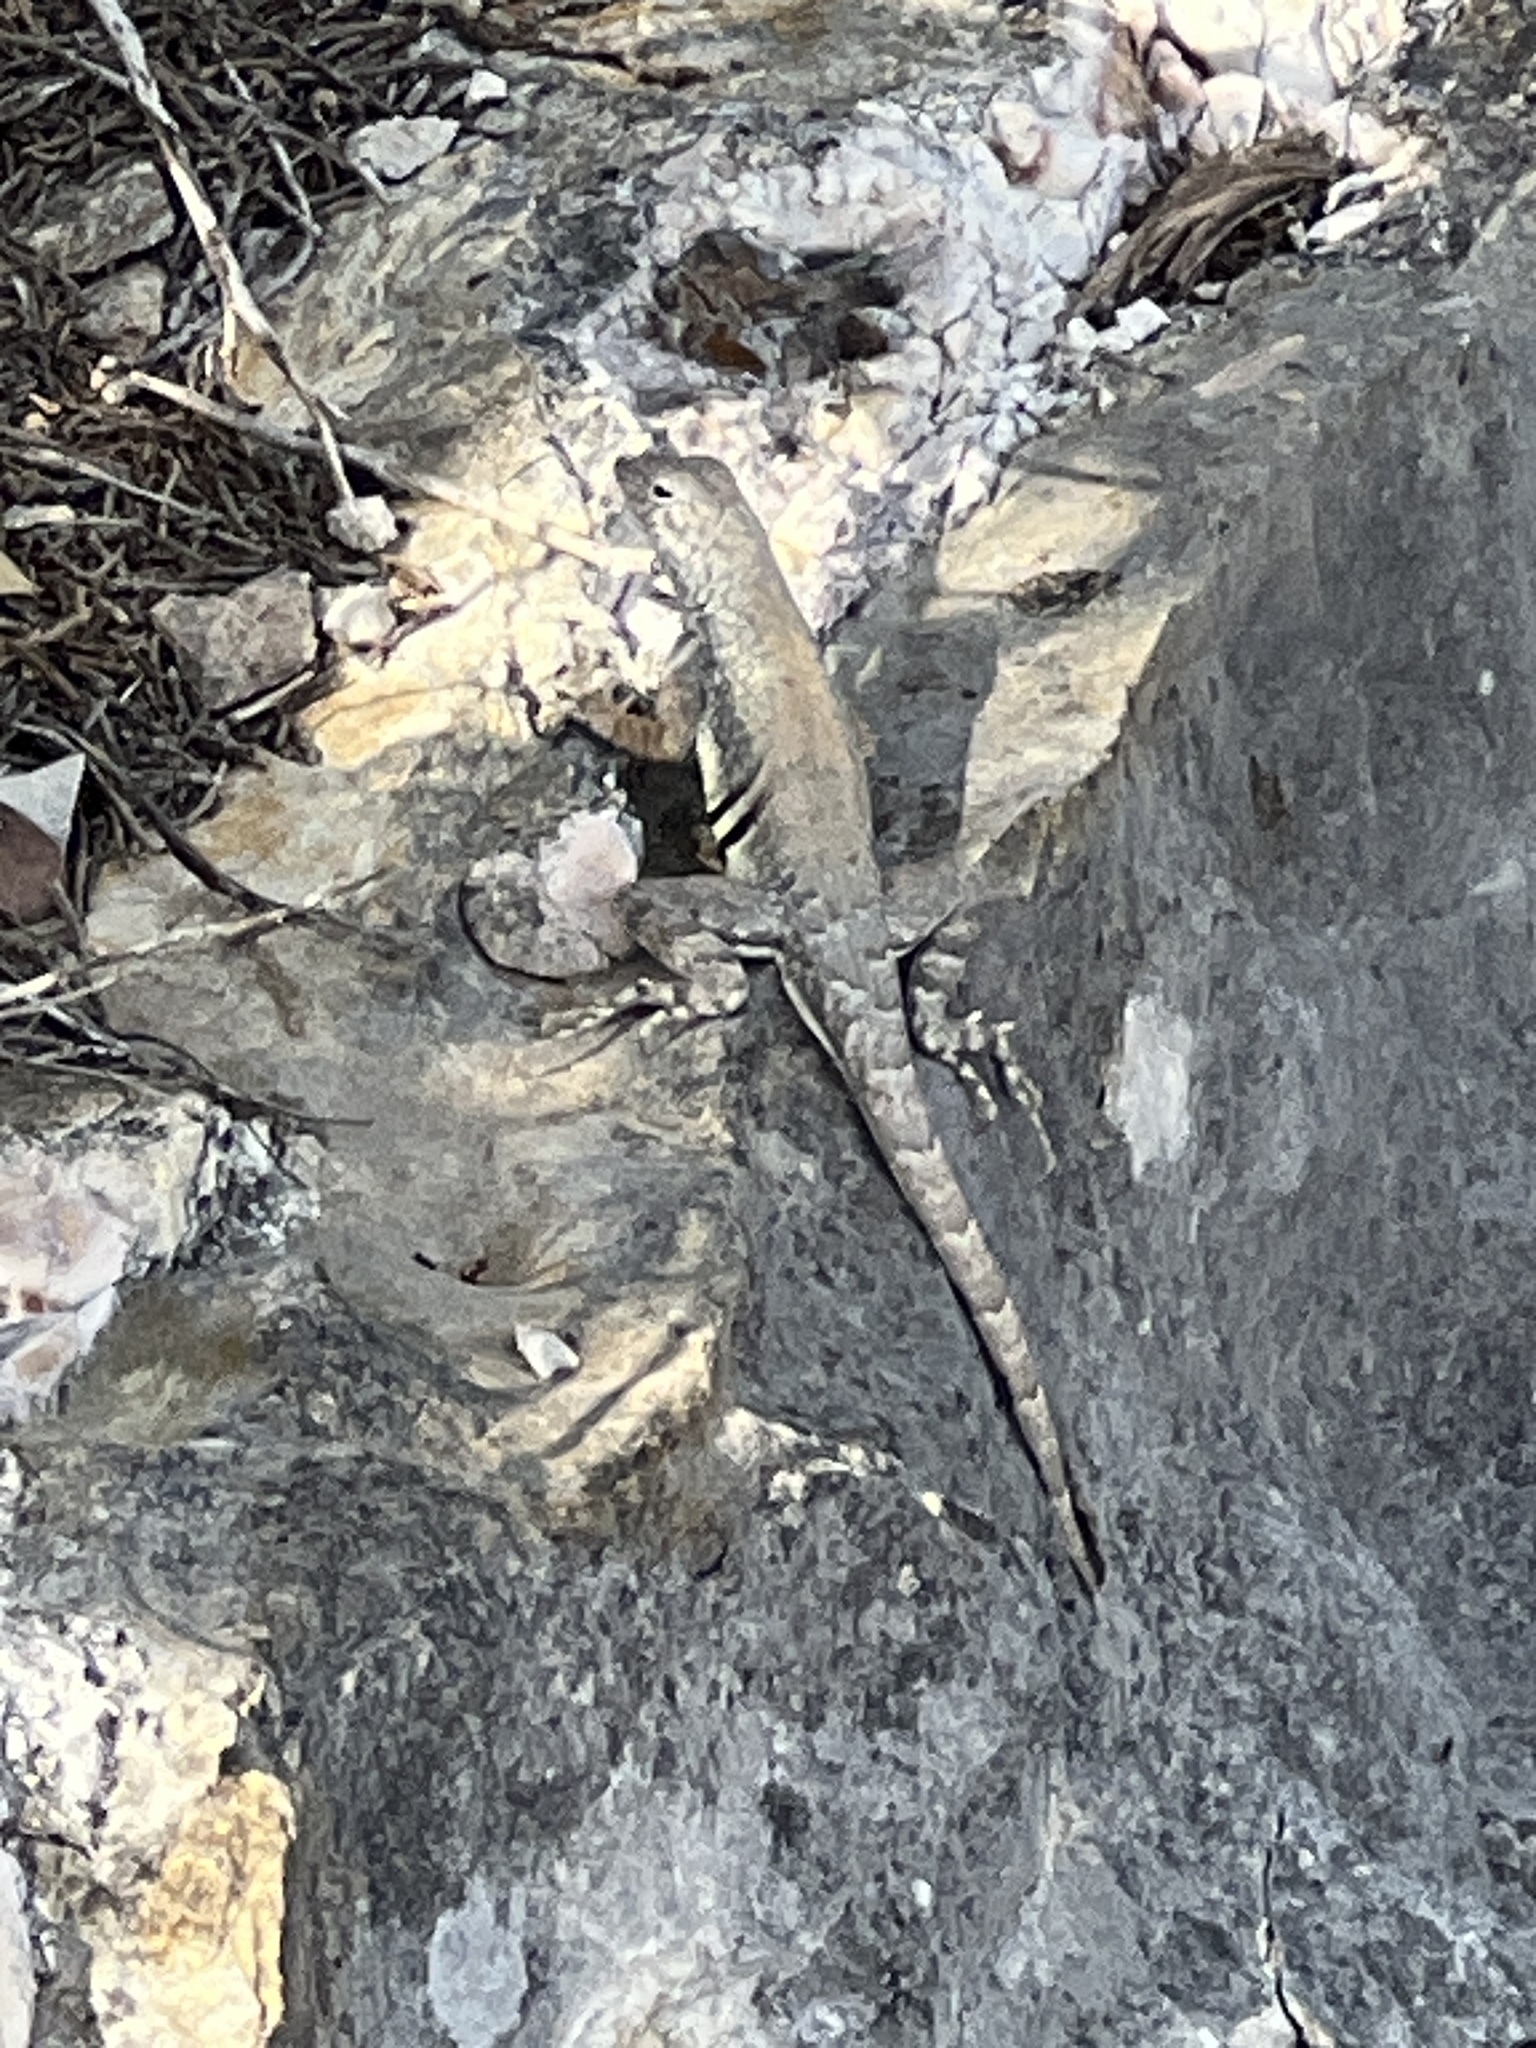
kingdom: Animalia
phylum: Chordata
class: Squamata
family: Phrynosomatidae
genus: Cophosaurus
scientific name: Cophosaurus texanus
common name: Greater earless lizard
